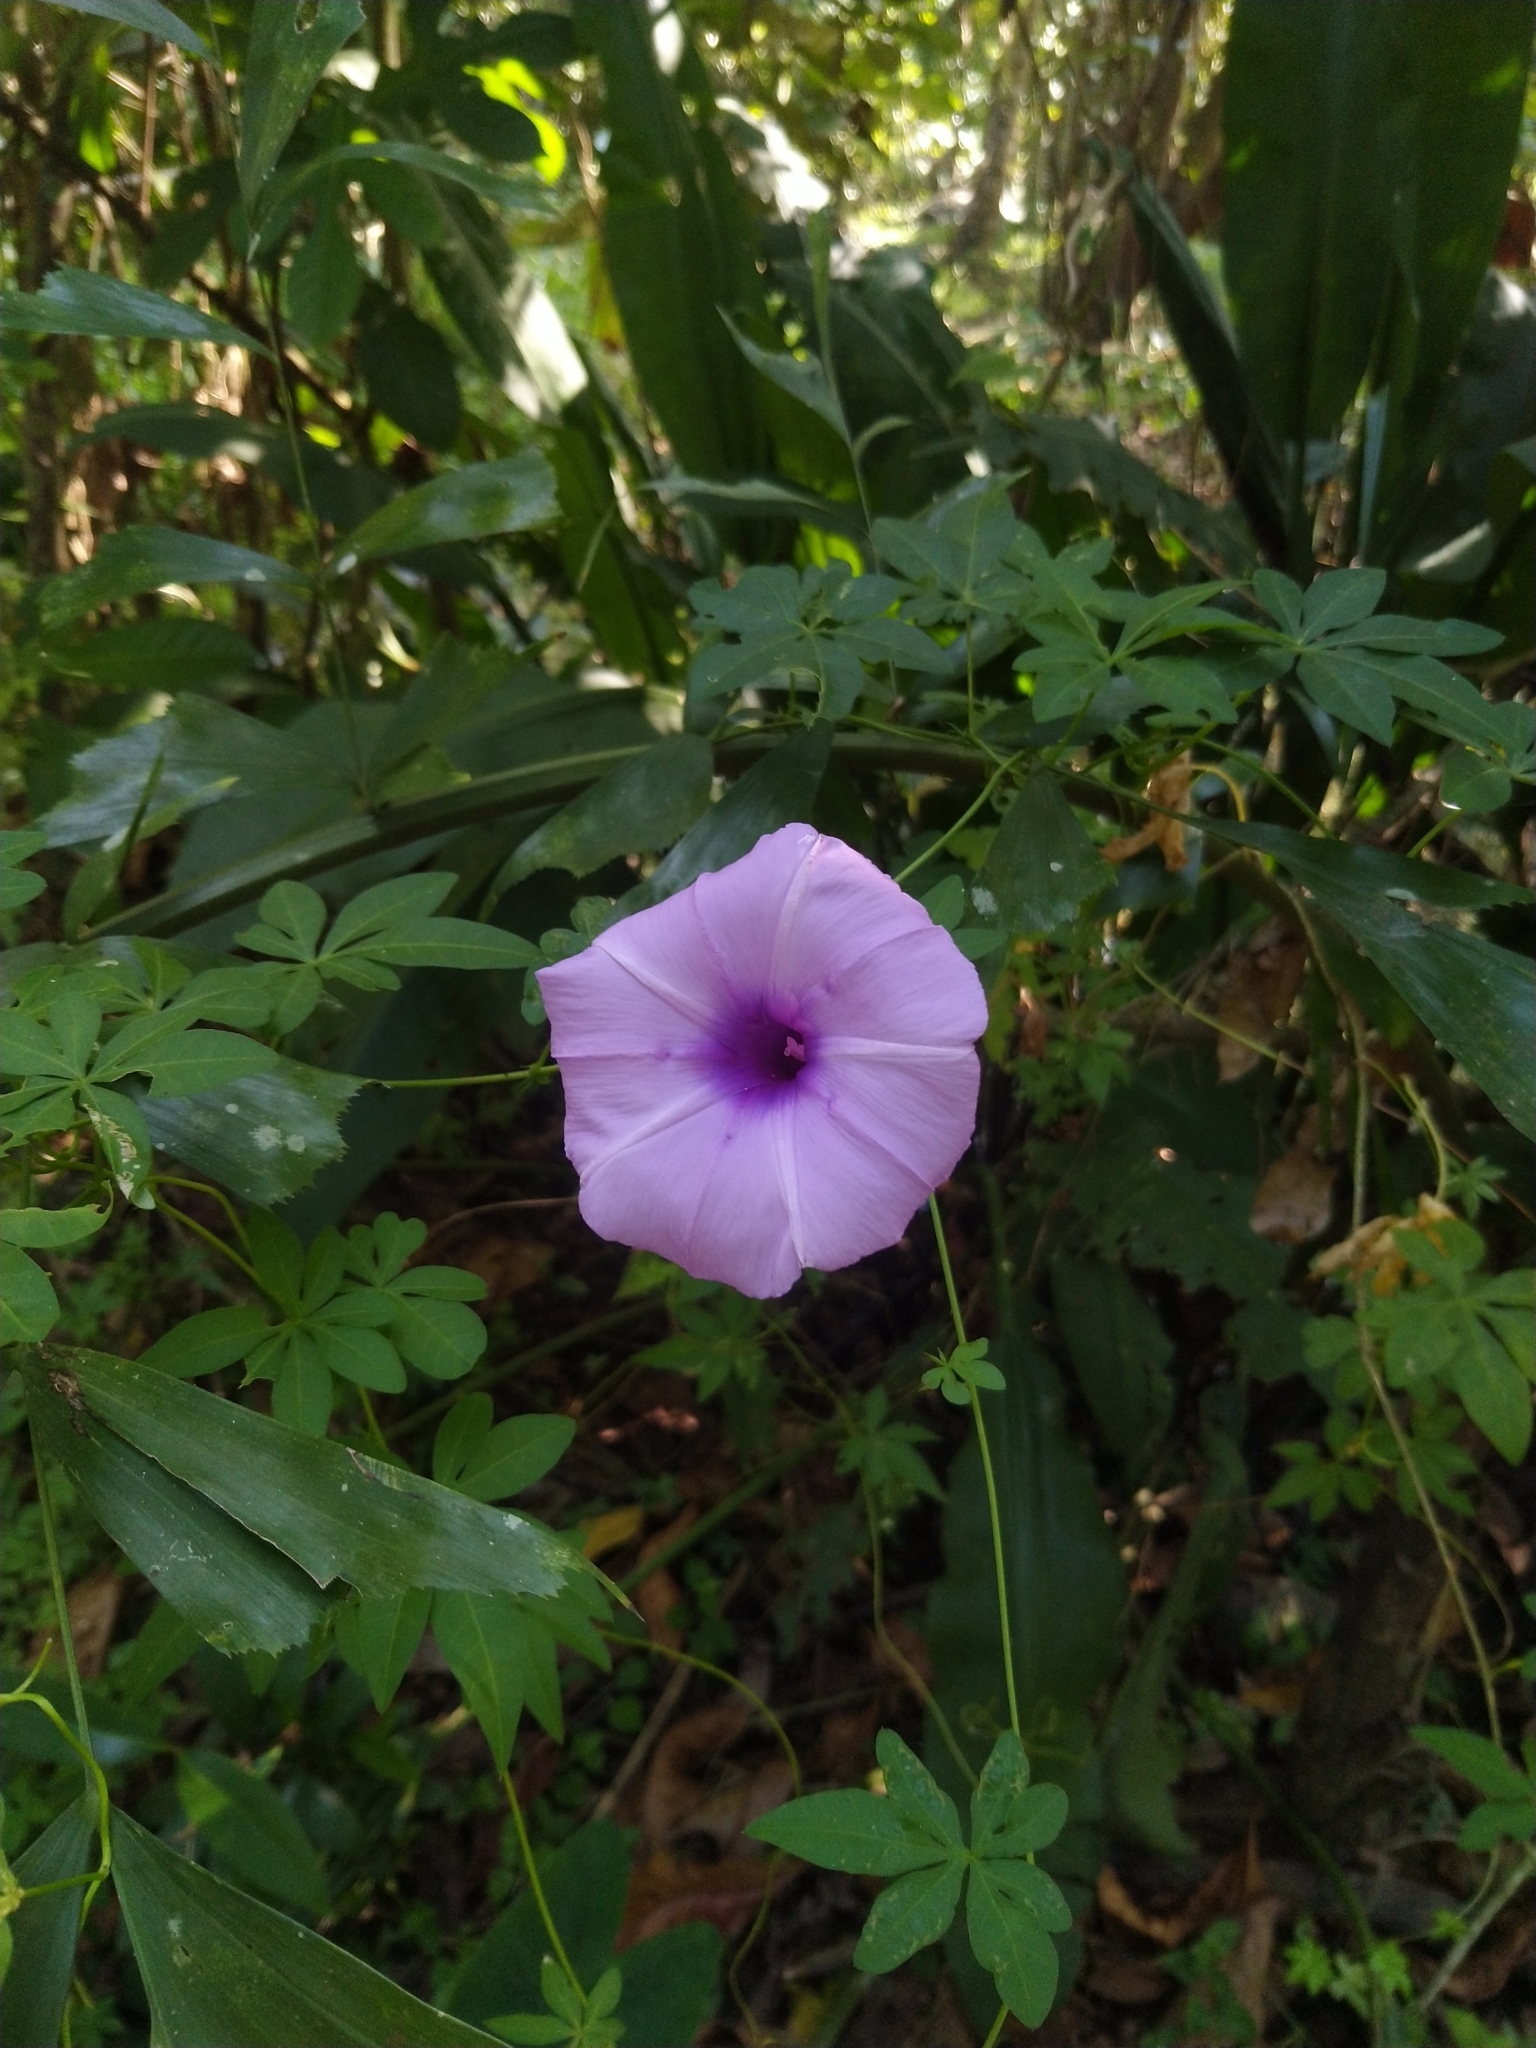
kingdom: Plantae
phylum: Tracheophyta
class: Magnoliopsida
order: Solanales
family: Convolvulaceae
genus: Ipomoea
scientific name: Ipomoea cairica
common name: Mile a minute vine
